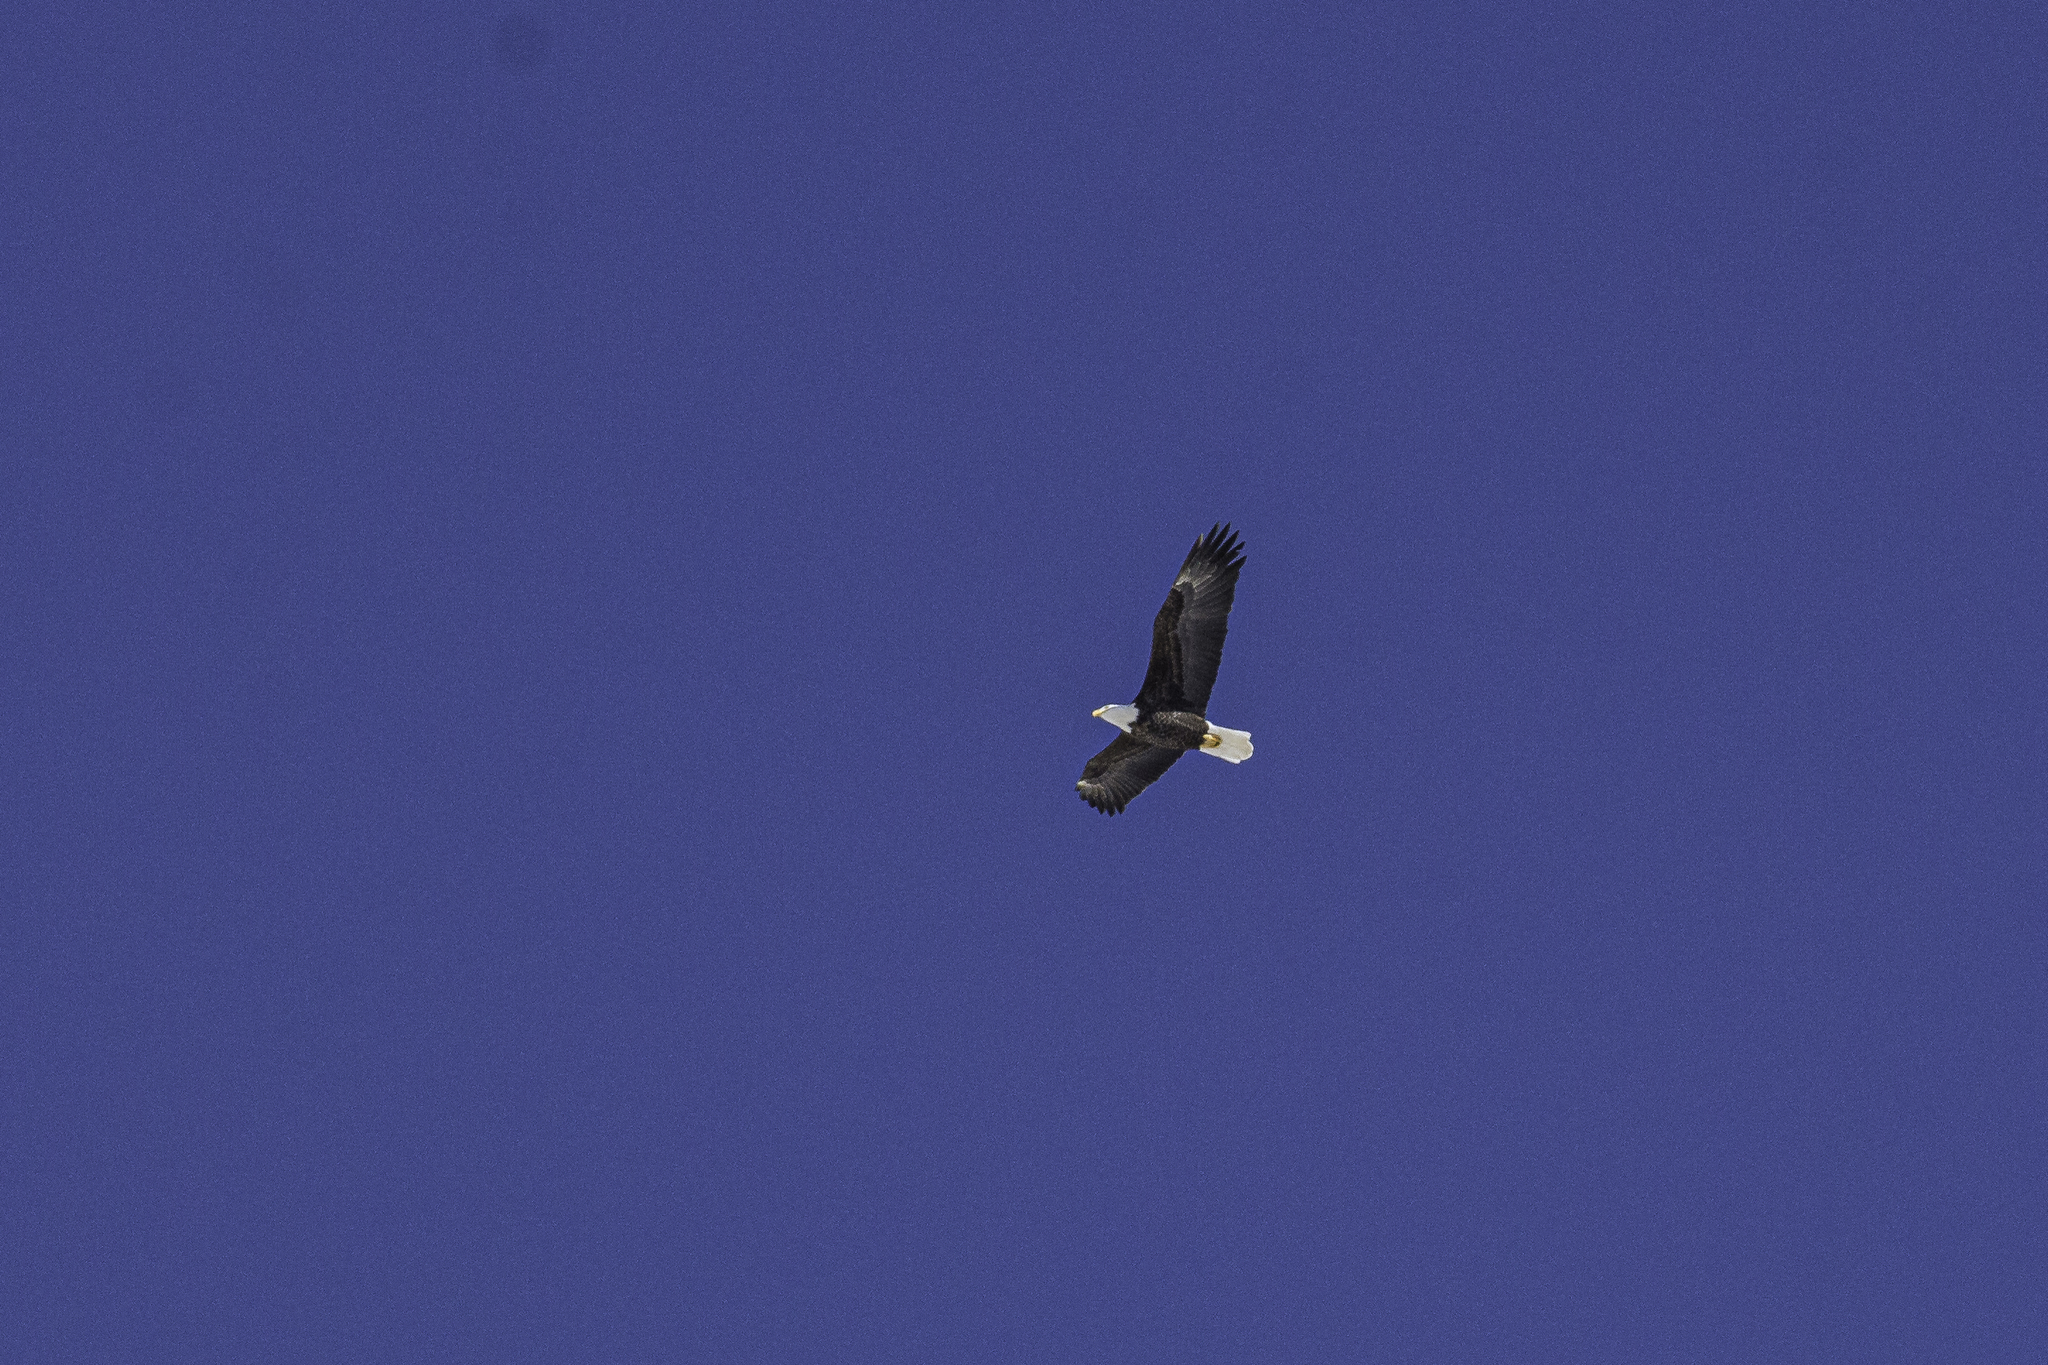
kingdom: Animalia
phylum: Chordata
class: Aves
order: Accipitriformes
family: Accipitridae
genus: Haliaeetus
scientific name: Haliaeetus leucocephalus
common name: Bald eagle
